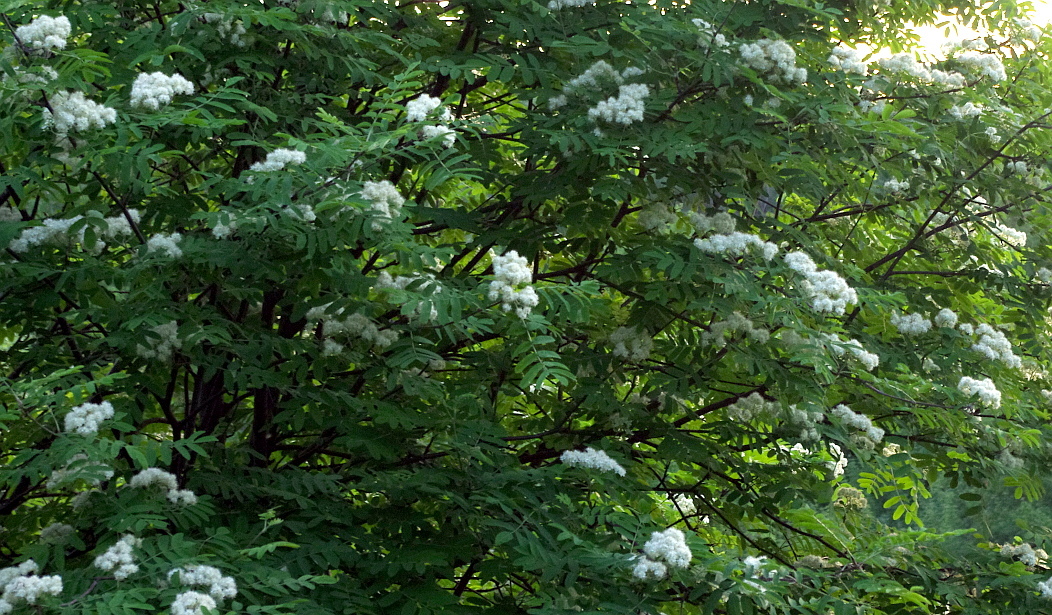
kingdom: Plantae
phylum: Tracheophyta
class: Magnoliopsida
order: Rosales
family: Rosaceae
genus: Sorbus
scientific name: Sorbus aucuparia
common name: Rowan
